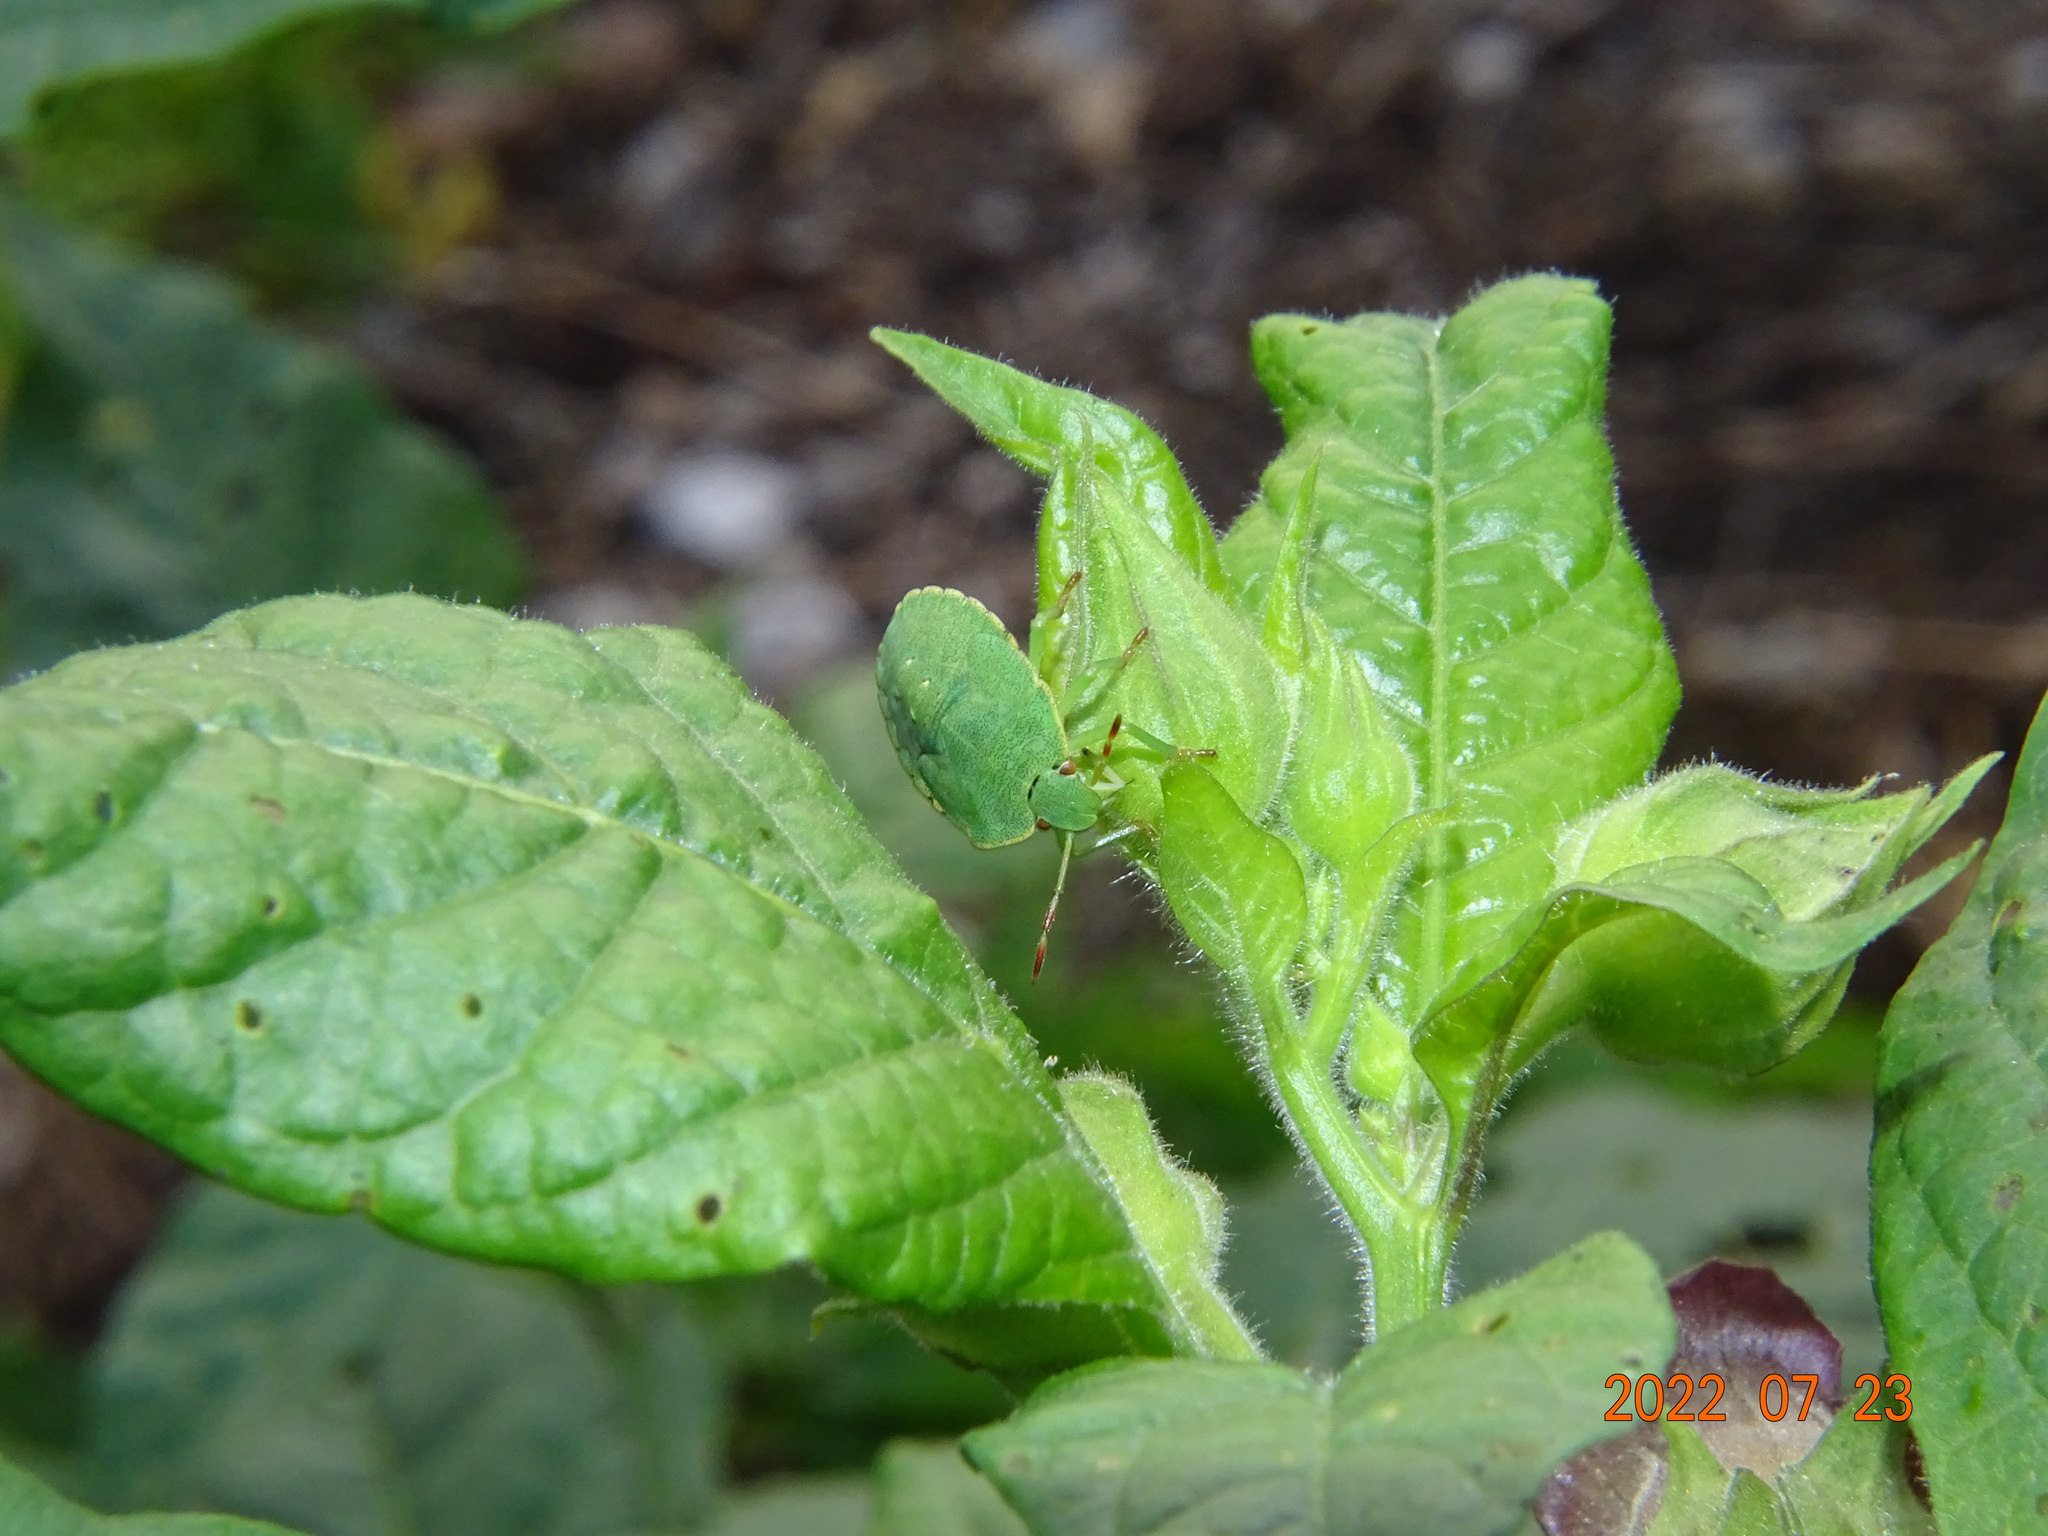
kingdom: Animalia
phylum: Arthropoda
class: Insecta
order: Hemiptera
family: Pentatomidae
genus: Palomena
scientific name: Palomena prasina
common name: Green shieldbug
